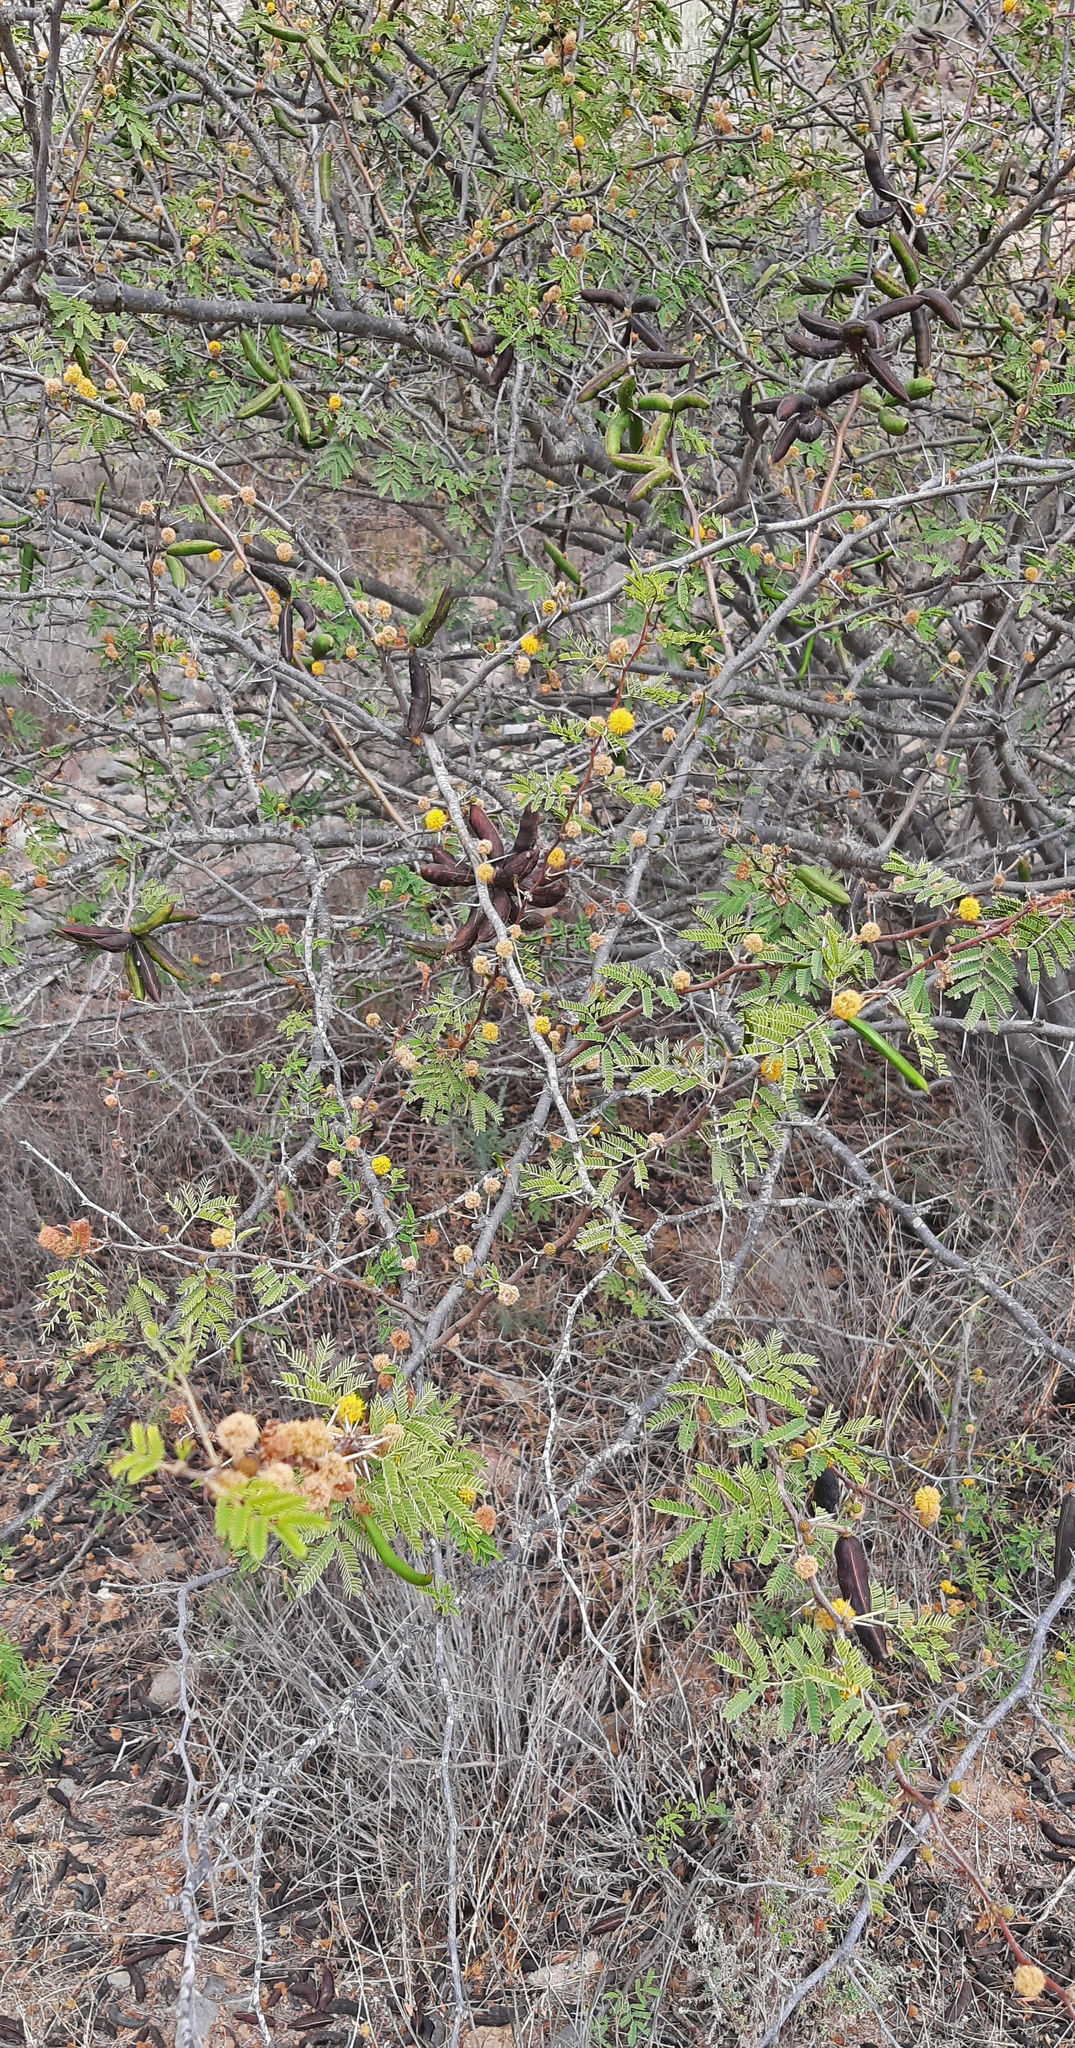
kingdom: Plantae
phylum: Tracheophyta
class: Magnoliopsida
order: Fabales
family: Fabaceae
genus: Vachellia
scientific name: Vachellia farnesiana
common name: Sweet acacia
